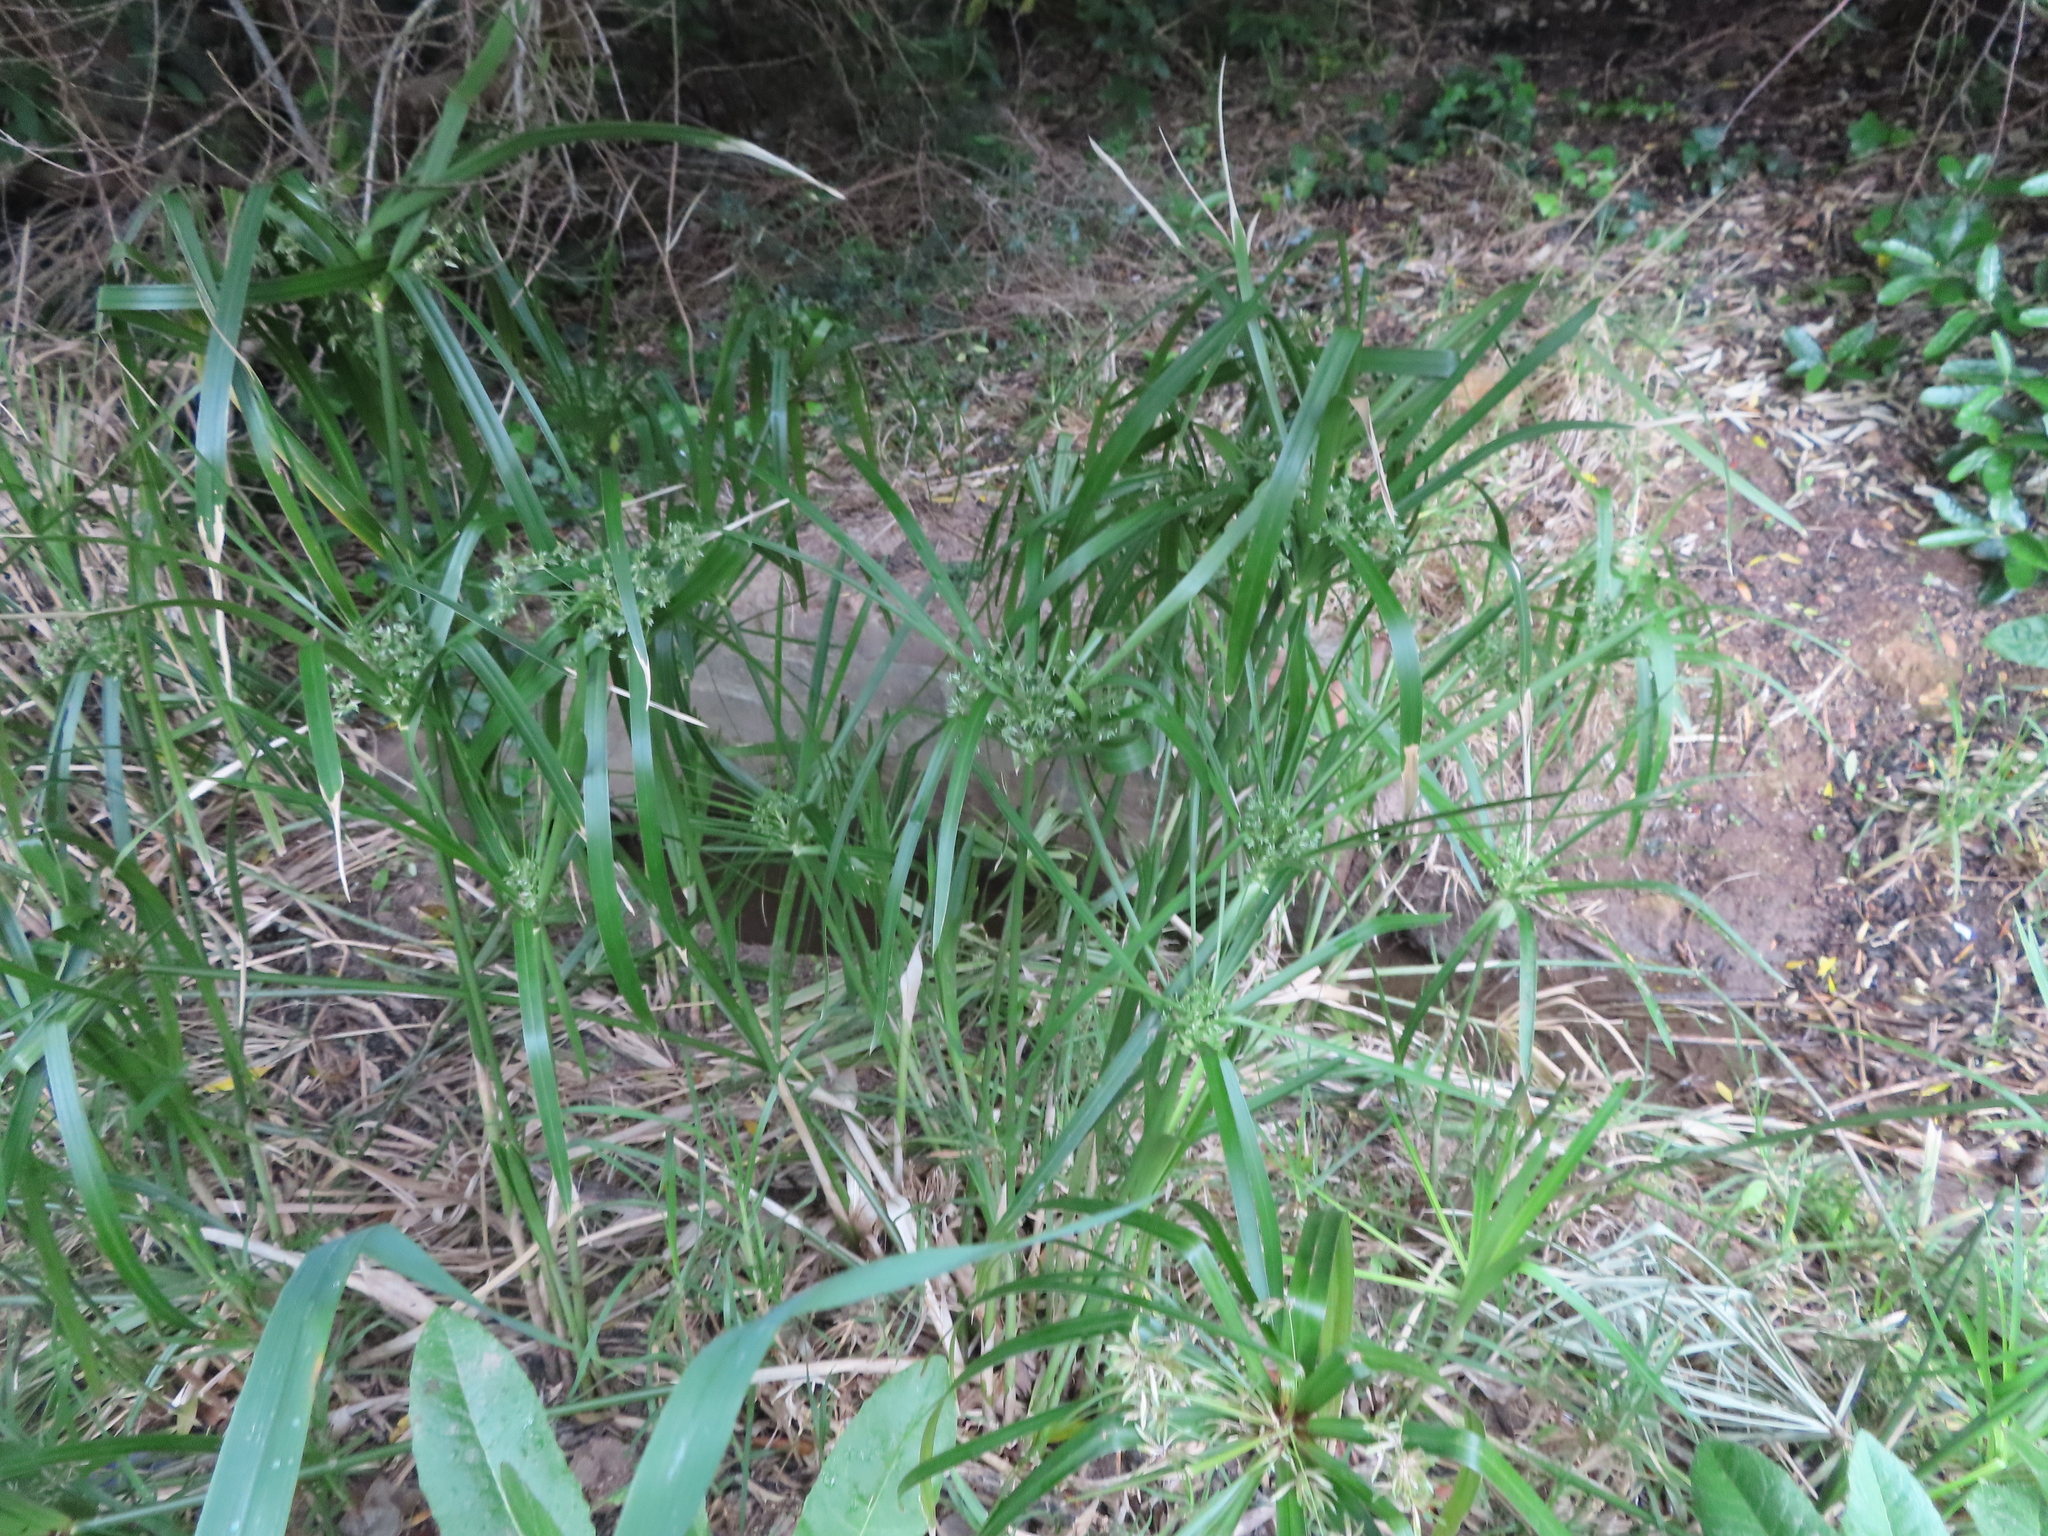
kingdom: Plantae
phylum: Tracheophyta
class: Liliopsida
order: Poales
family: Cyperaceae
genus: Cyperus
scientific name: Cyperus textilis
